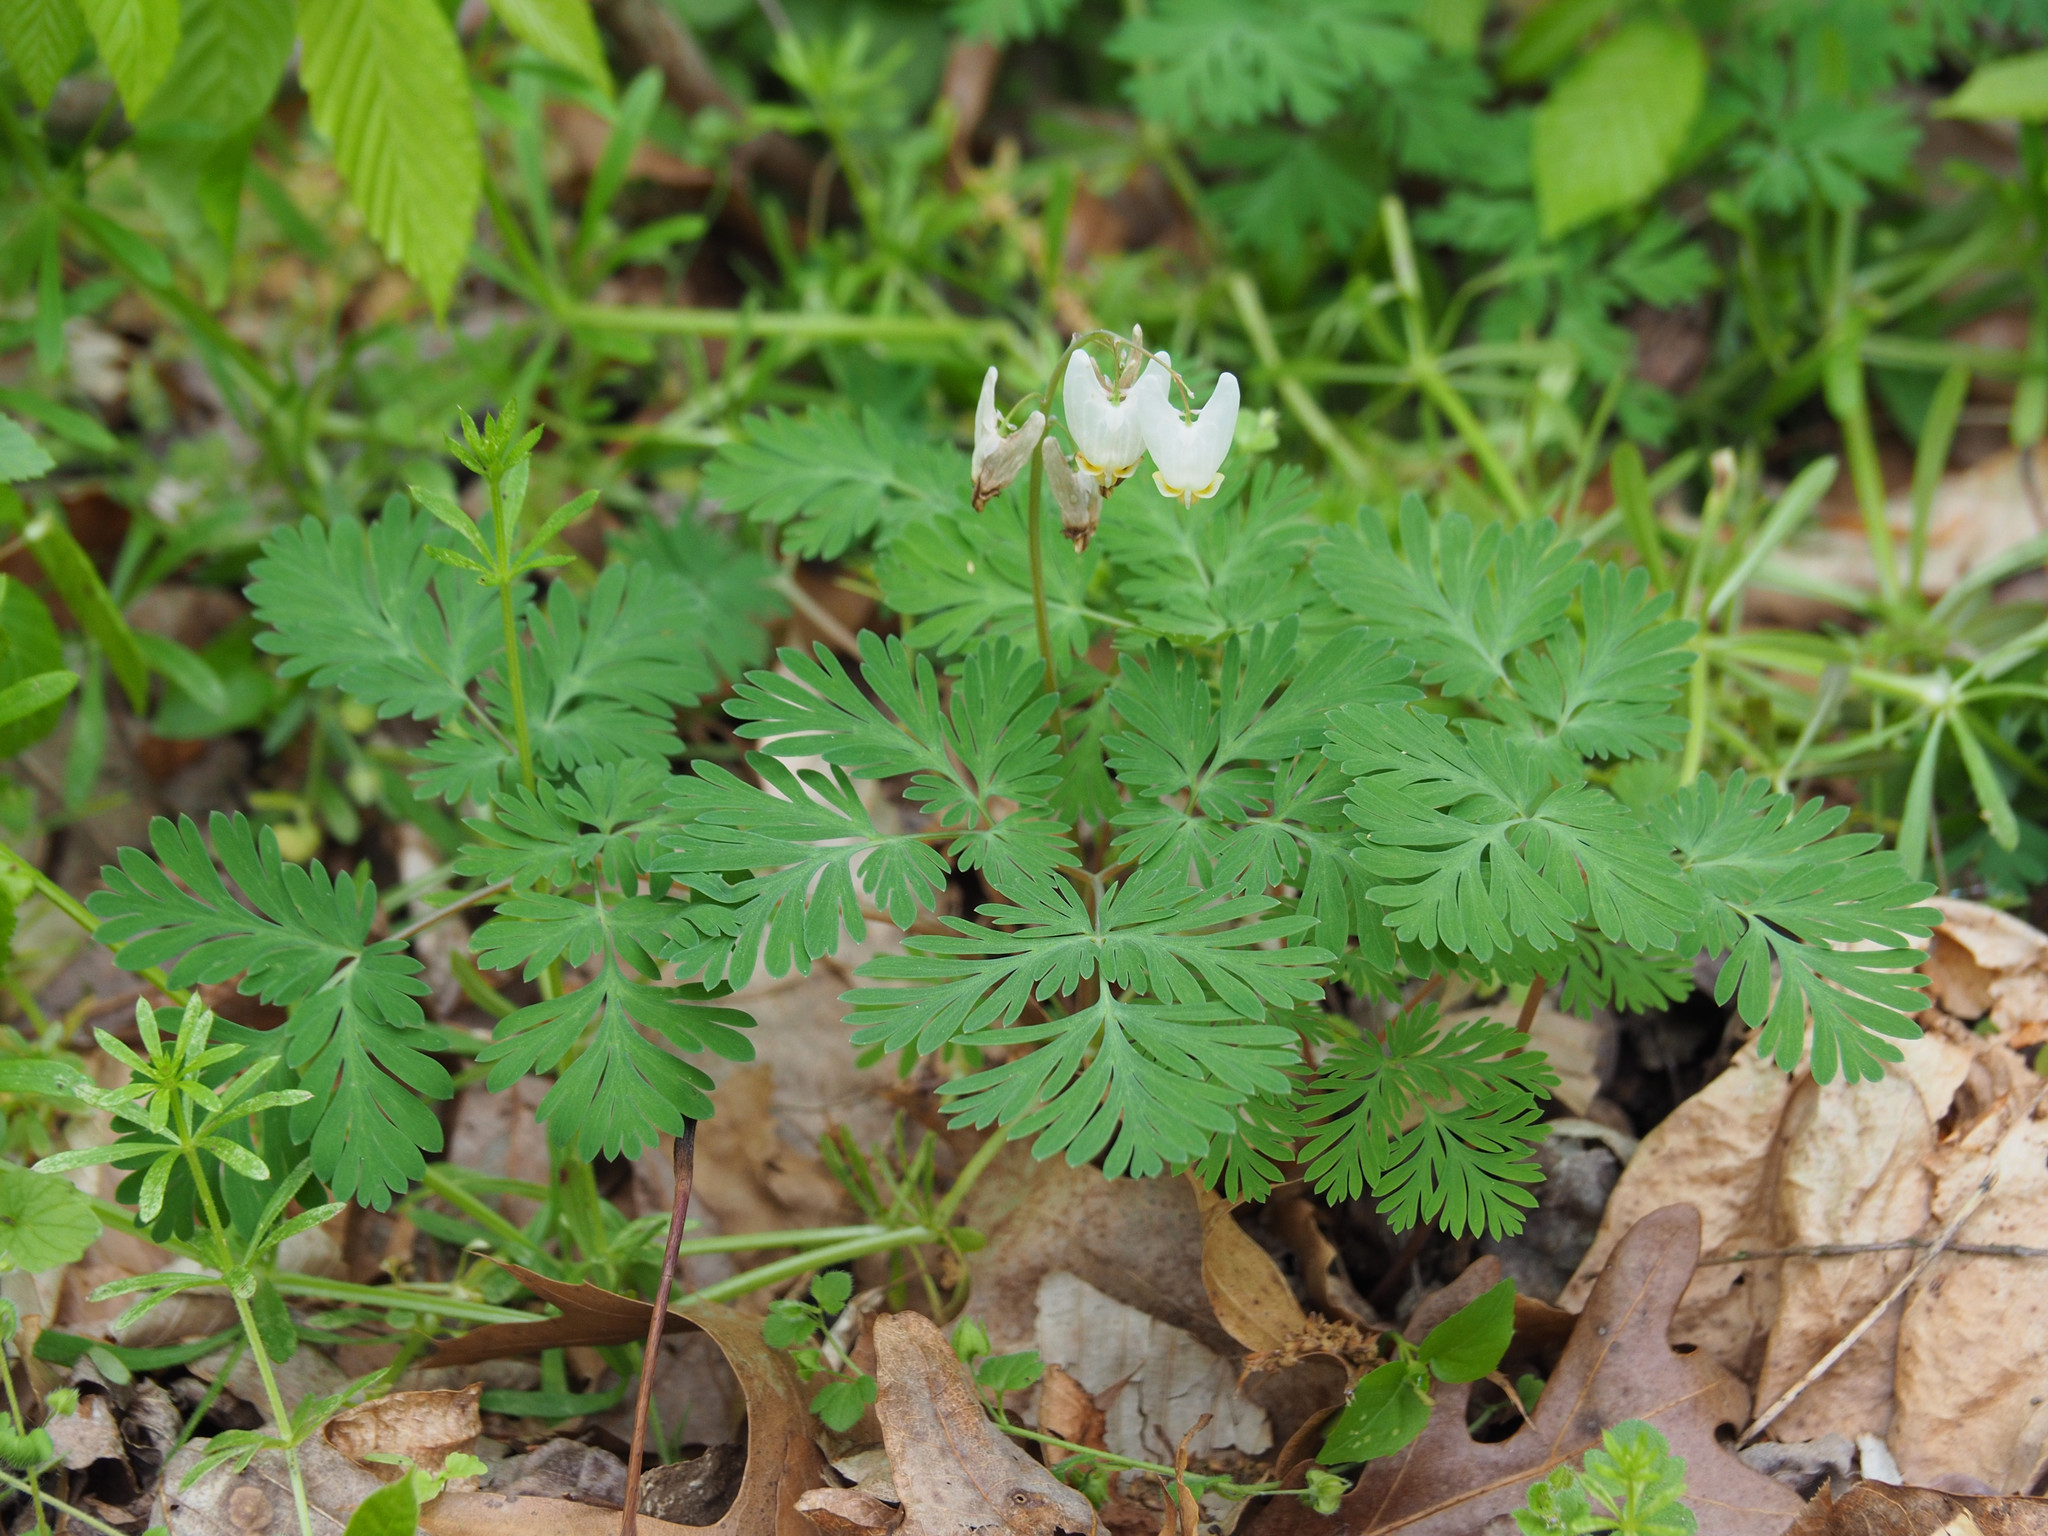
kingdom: Plantae
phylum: Tracheophyta
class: Magnoliopsida
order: Ranunculales
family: Papaveraceae
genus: Dicentra
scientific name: Dicentra cucullaria
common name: Dutchman's breeches
